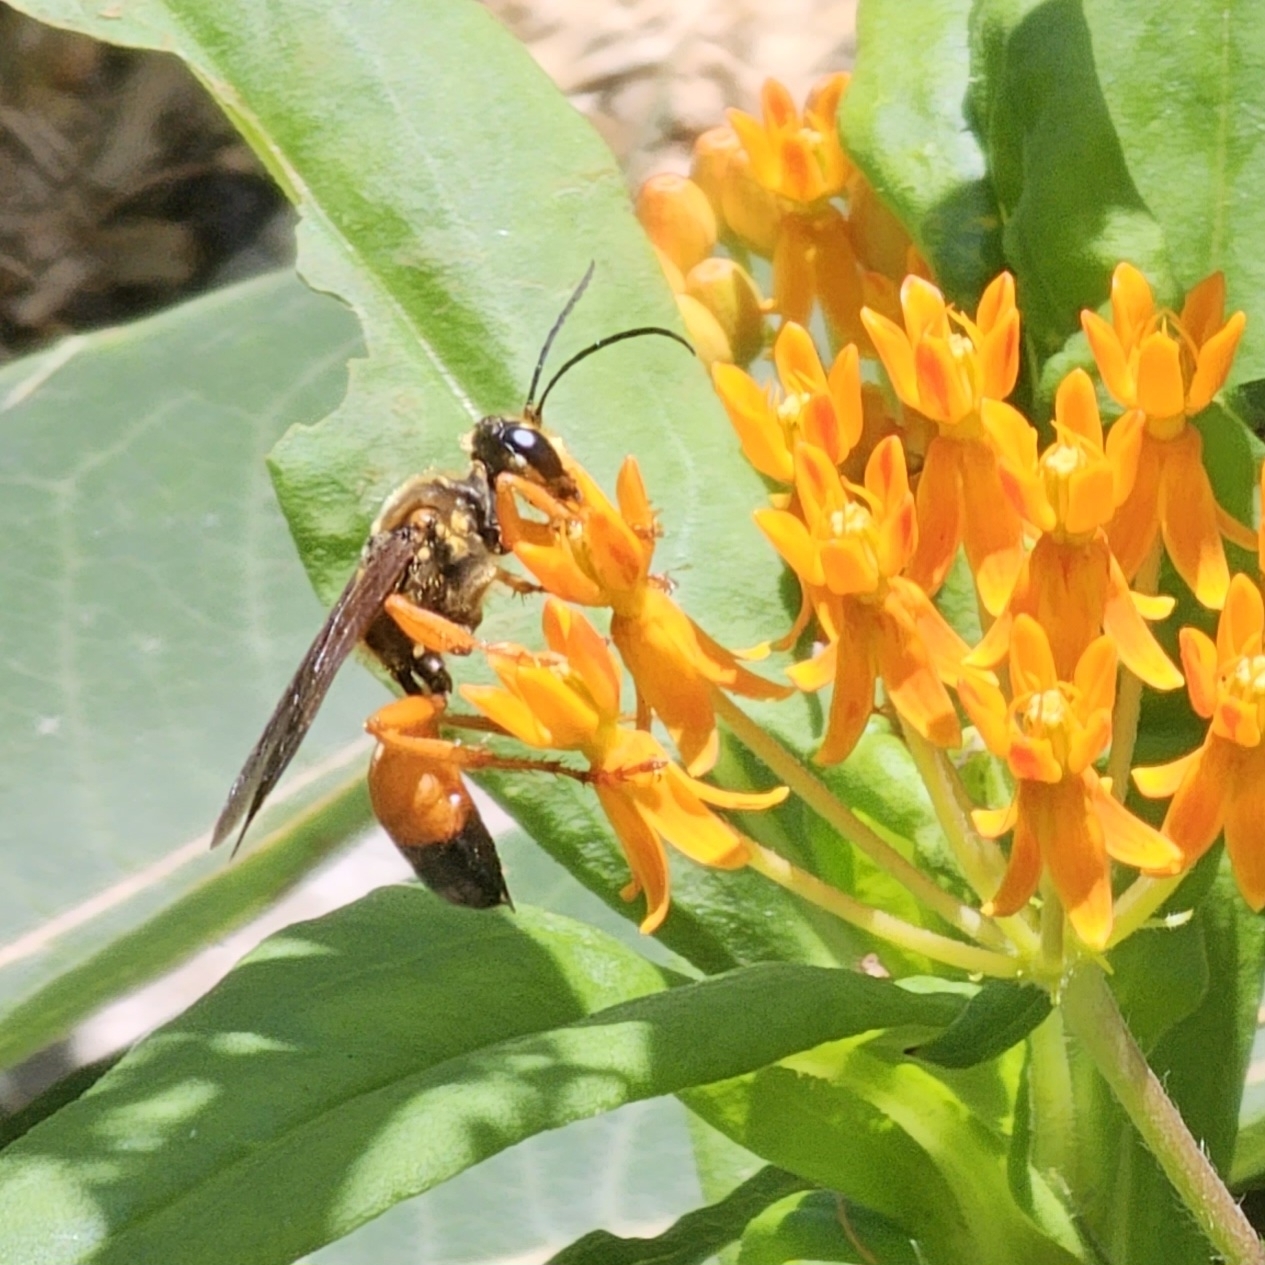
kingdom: Animalia
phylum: Arthropoda
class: Insecta
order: Hymenoptera
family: Sphecidae
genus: Sphex
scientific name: Sphex ichneumoneus
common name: Great golden digger wasp
